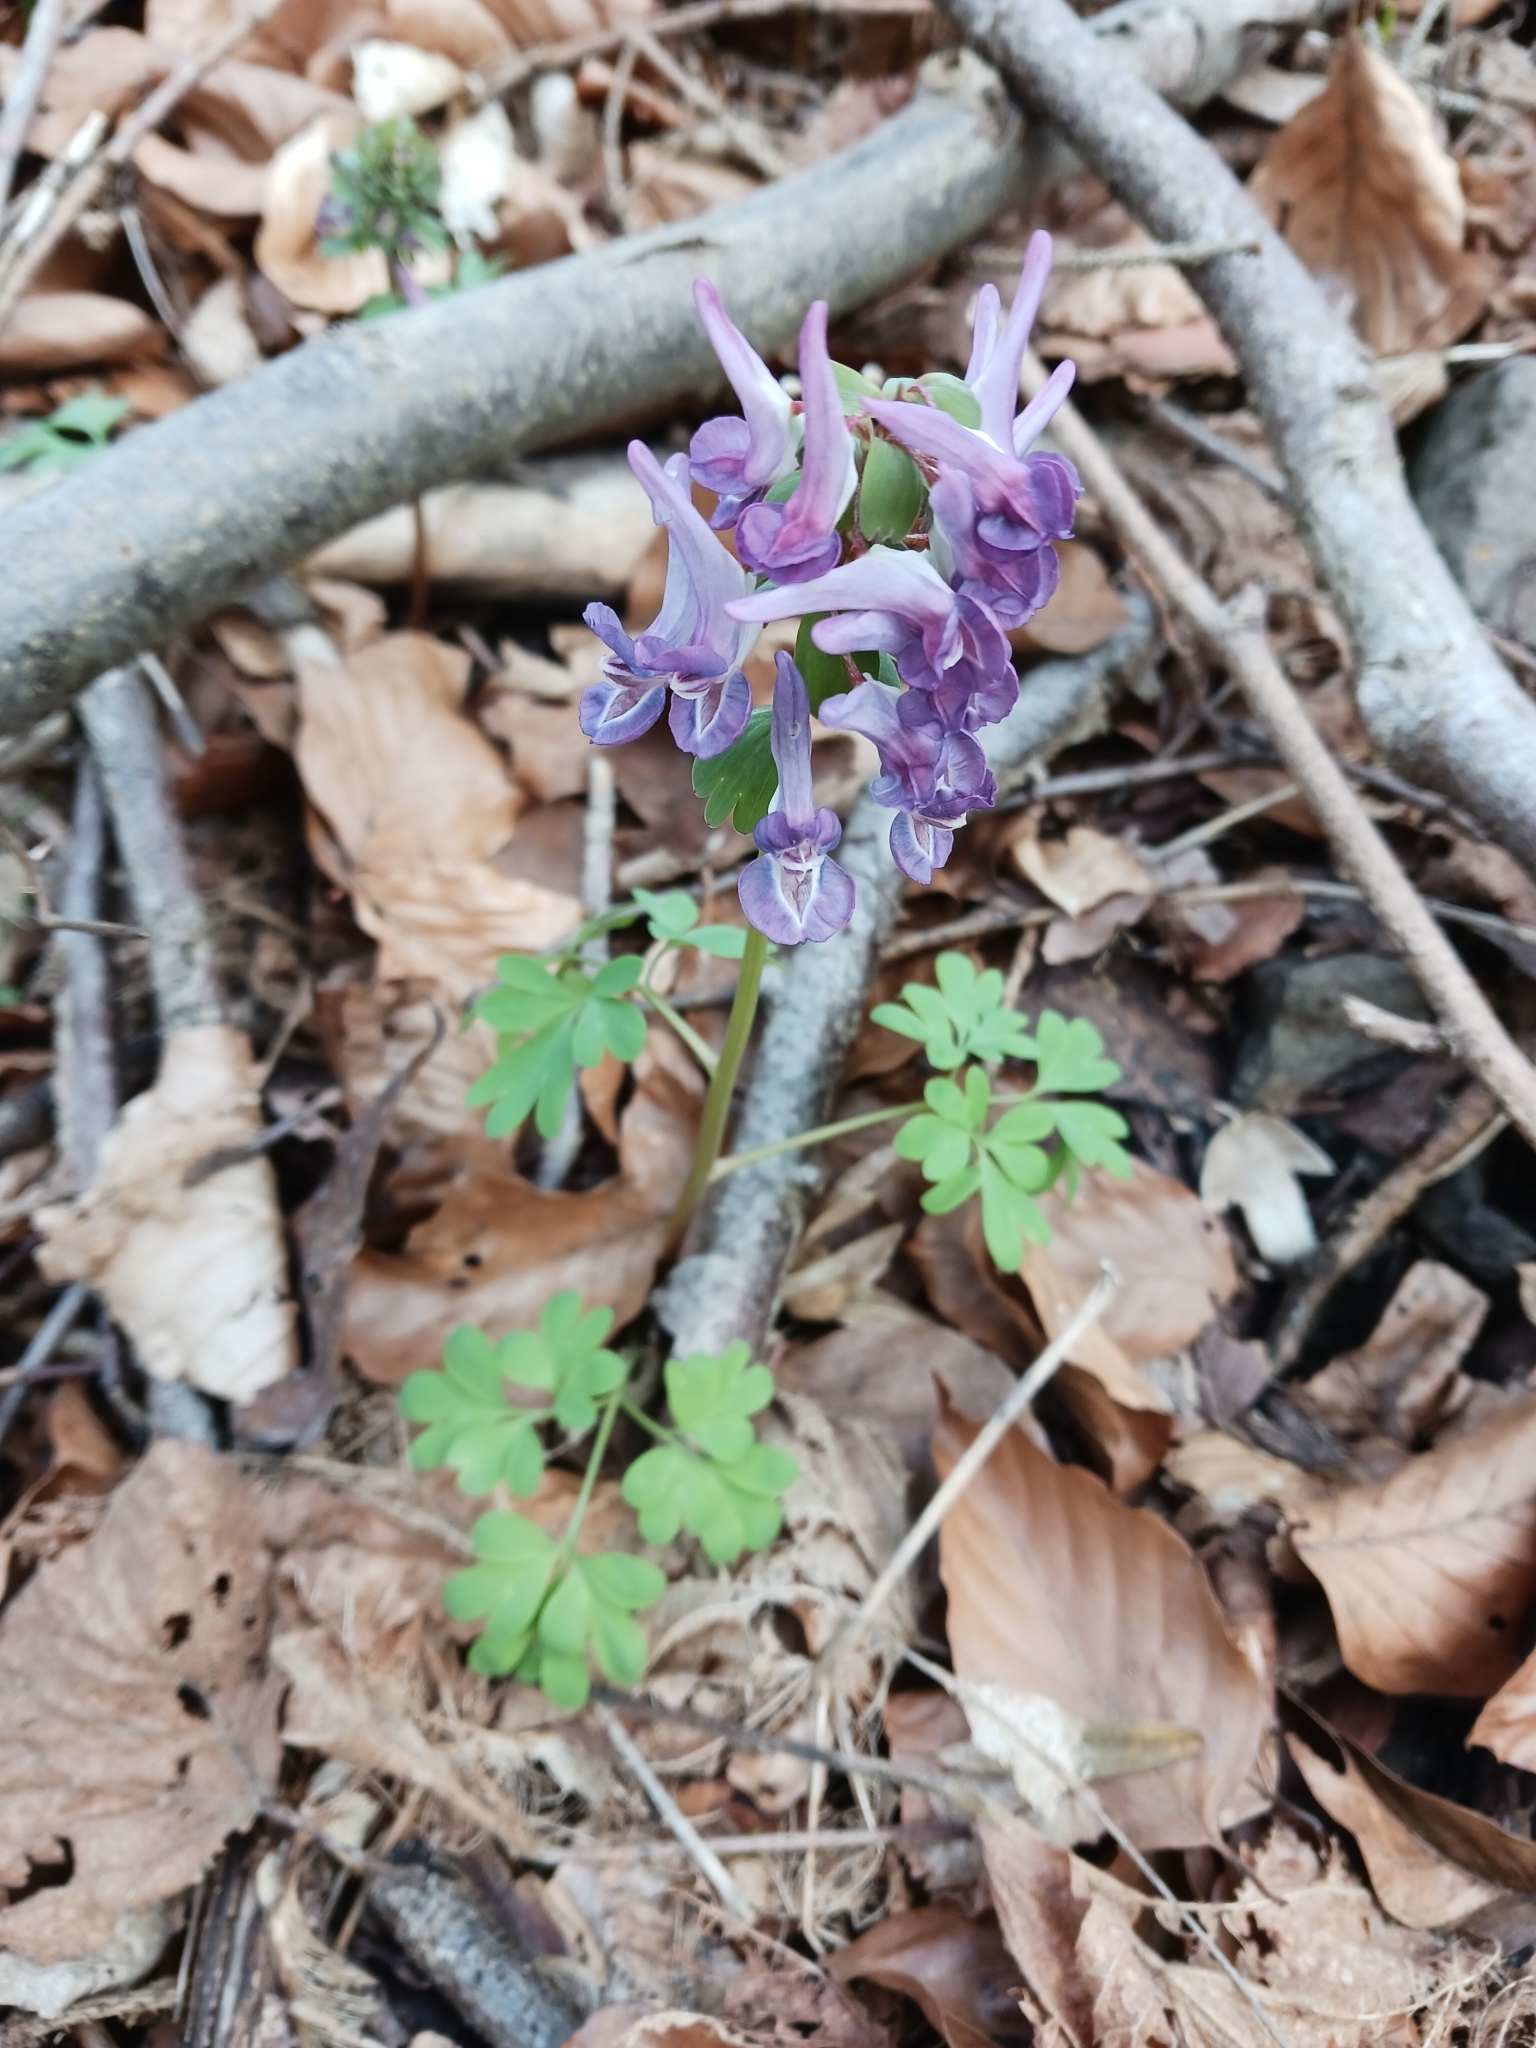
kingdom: Plantae
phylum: Tracheophyta
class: Magnoliopsida
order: Ranunculales
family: Papaveraceae
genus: Corydalis
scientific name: Corydalis hausmannii
